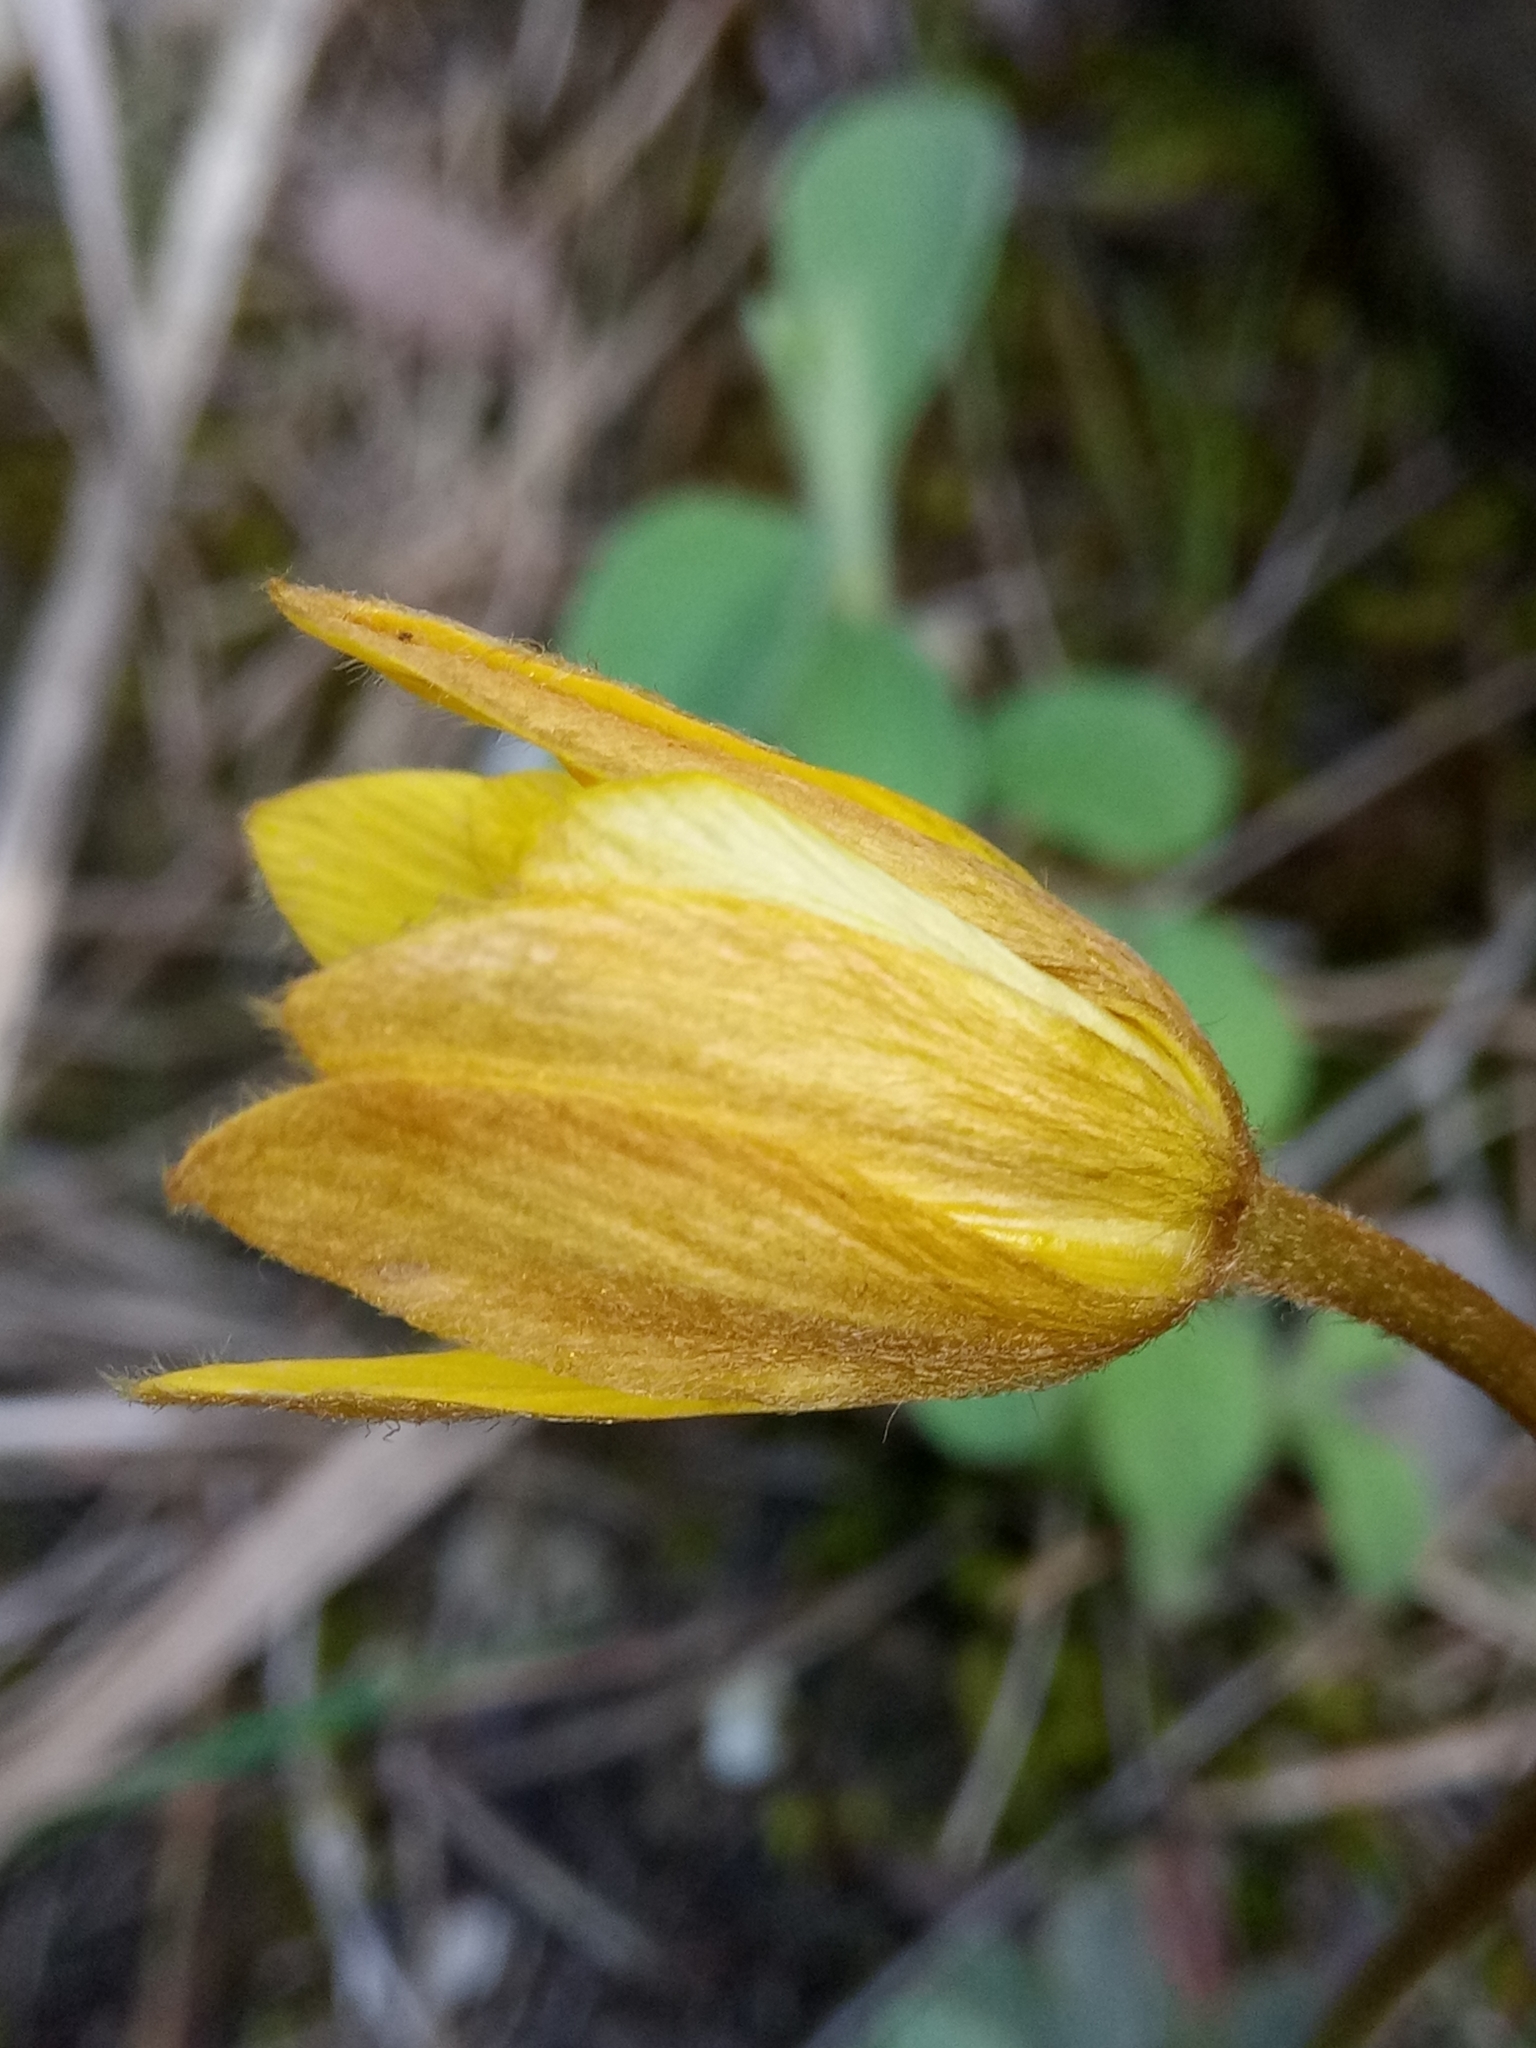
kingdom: Plantae
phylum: Tracheophyta
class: Magnoliopsida
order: Ranunculales
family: Ranunculaceae
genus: Anemone
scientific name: Anemone palmata
